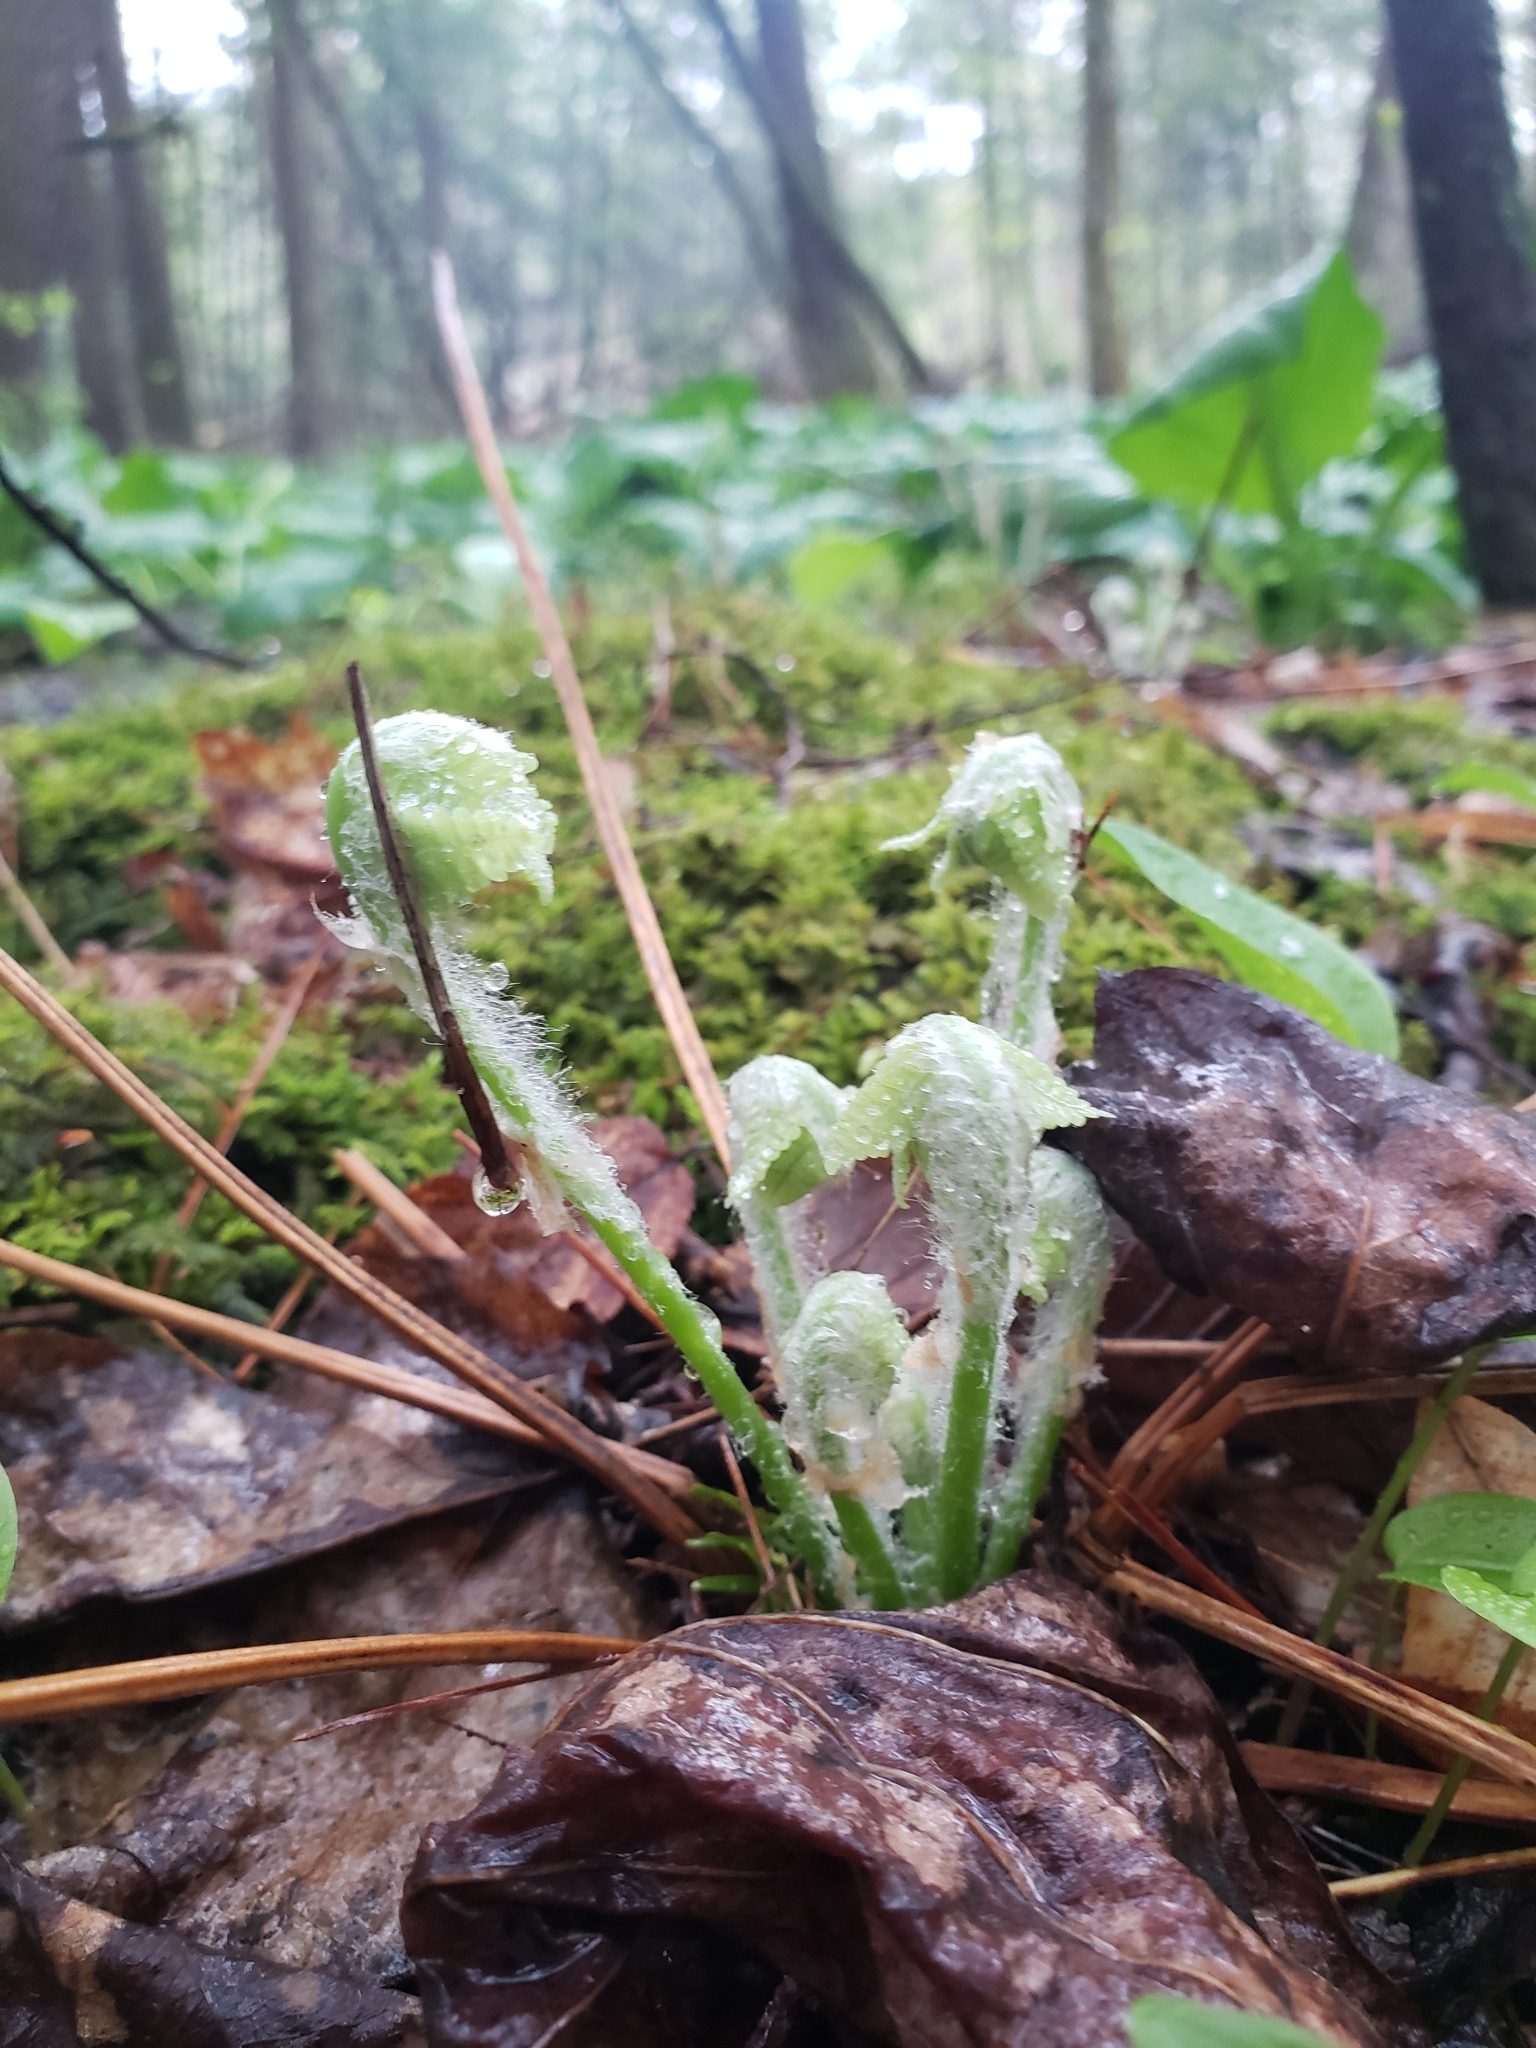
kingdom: Plantae
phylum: Tracheophyta
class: Polypodiopsida
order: Osmundales
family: Osmundaceae
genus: Claytosmunda
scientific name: Claytosmunda claytoniana
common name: Clayton's fern
